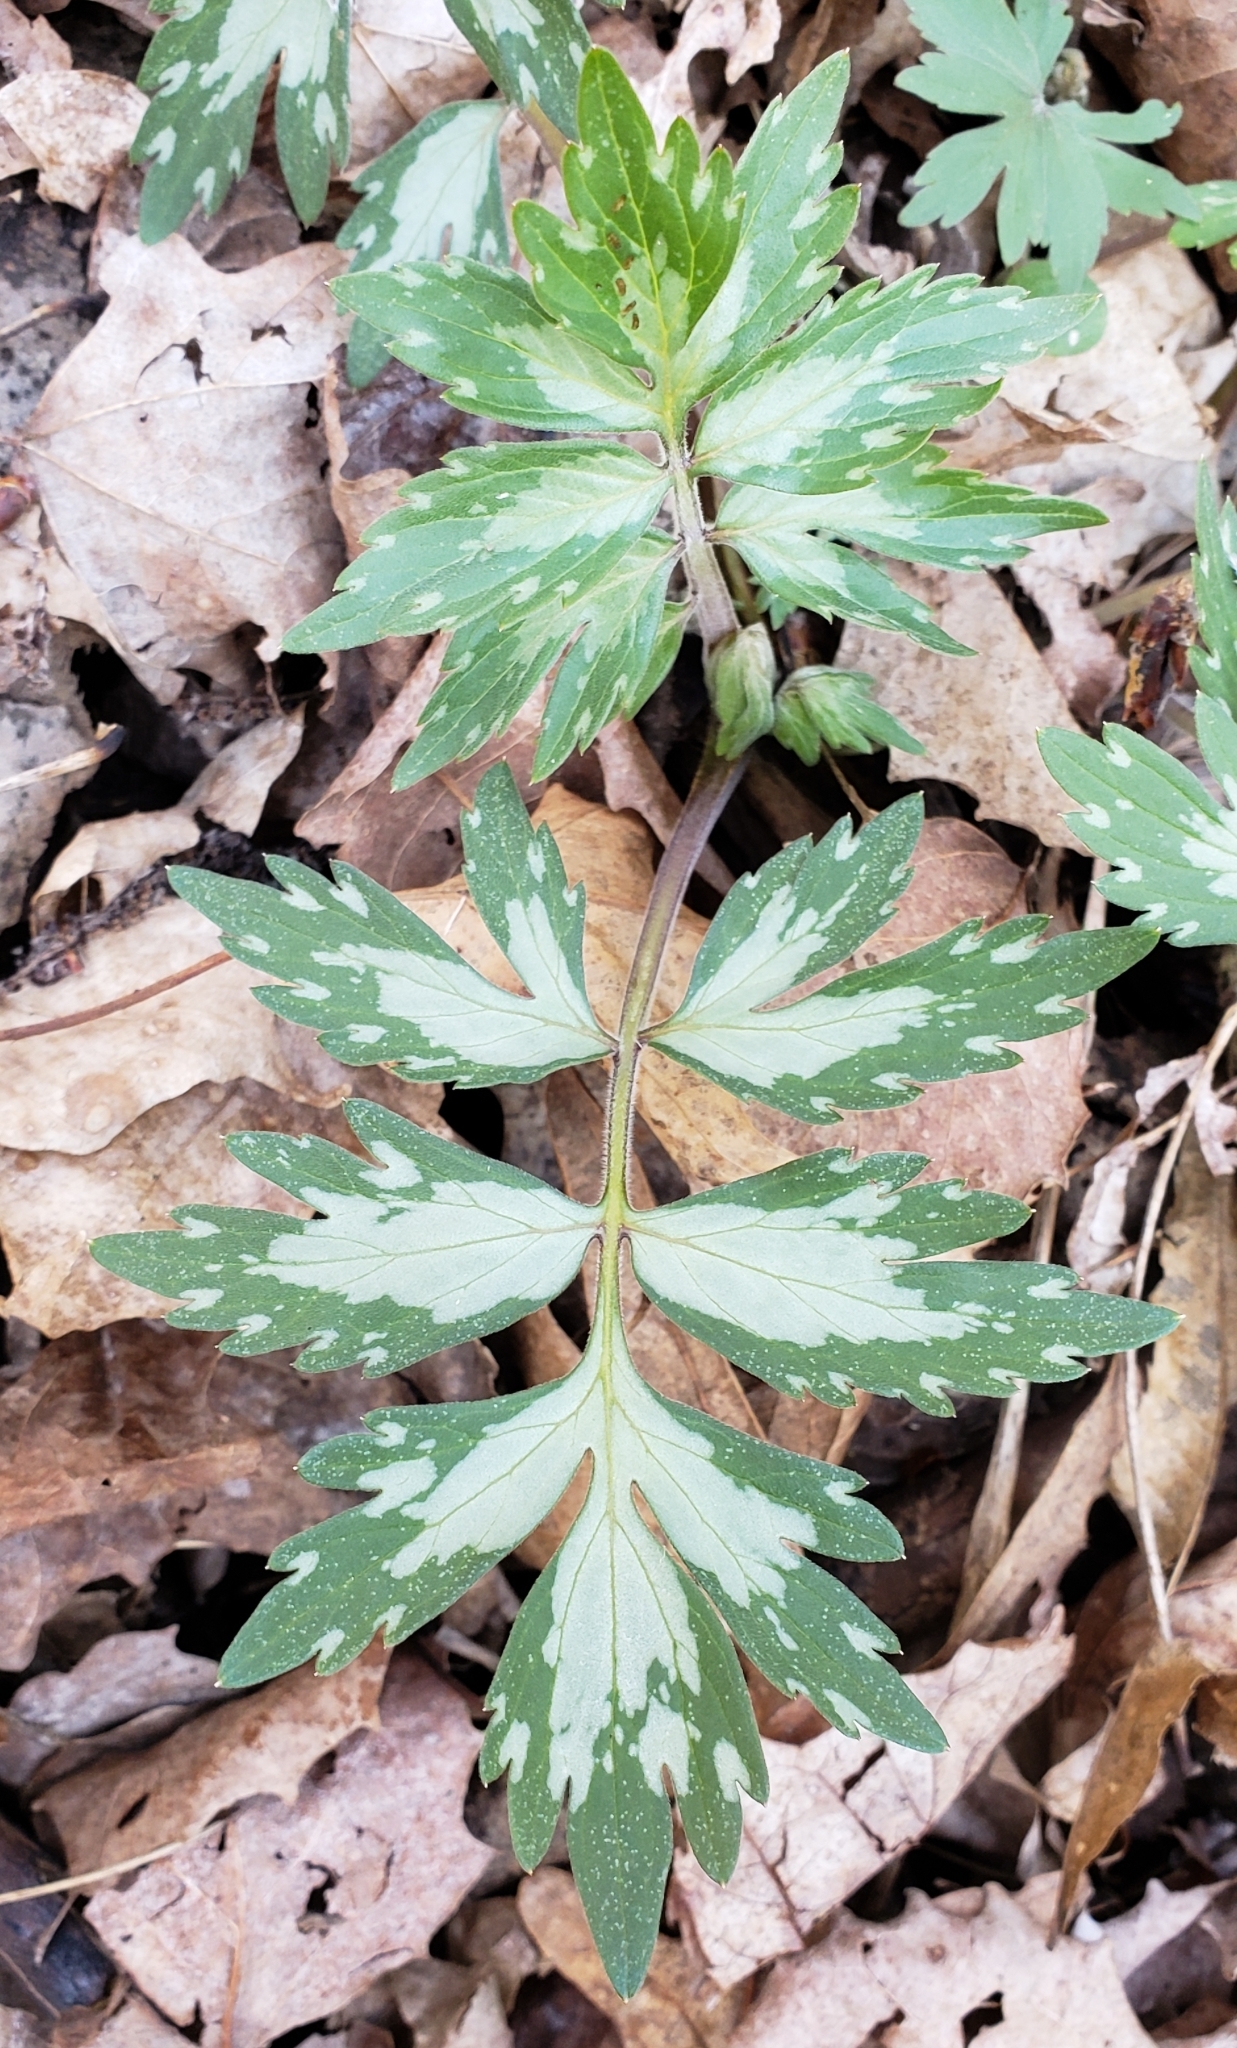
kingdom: Plantae
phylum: Tracheophyta
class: Magnoliopsida
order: Boraginales
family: Hydrophyllaceae
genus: Hydrophyllum
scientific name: Hydrophyllum virginianum
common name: Virginia waterleaf
